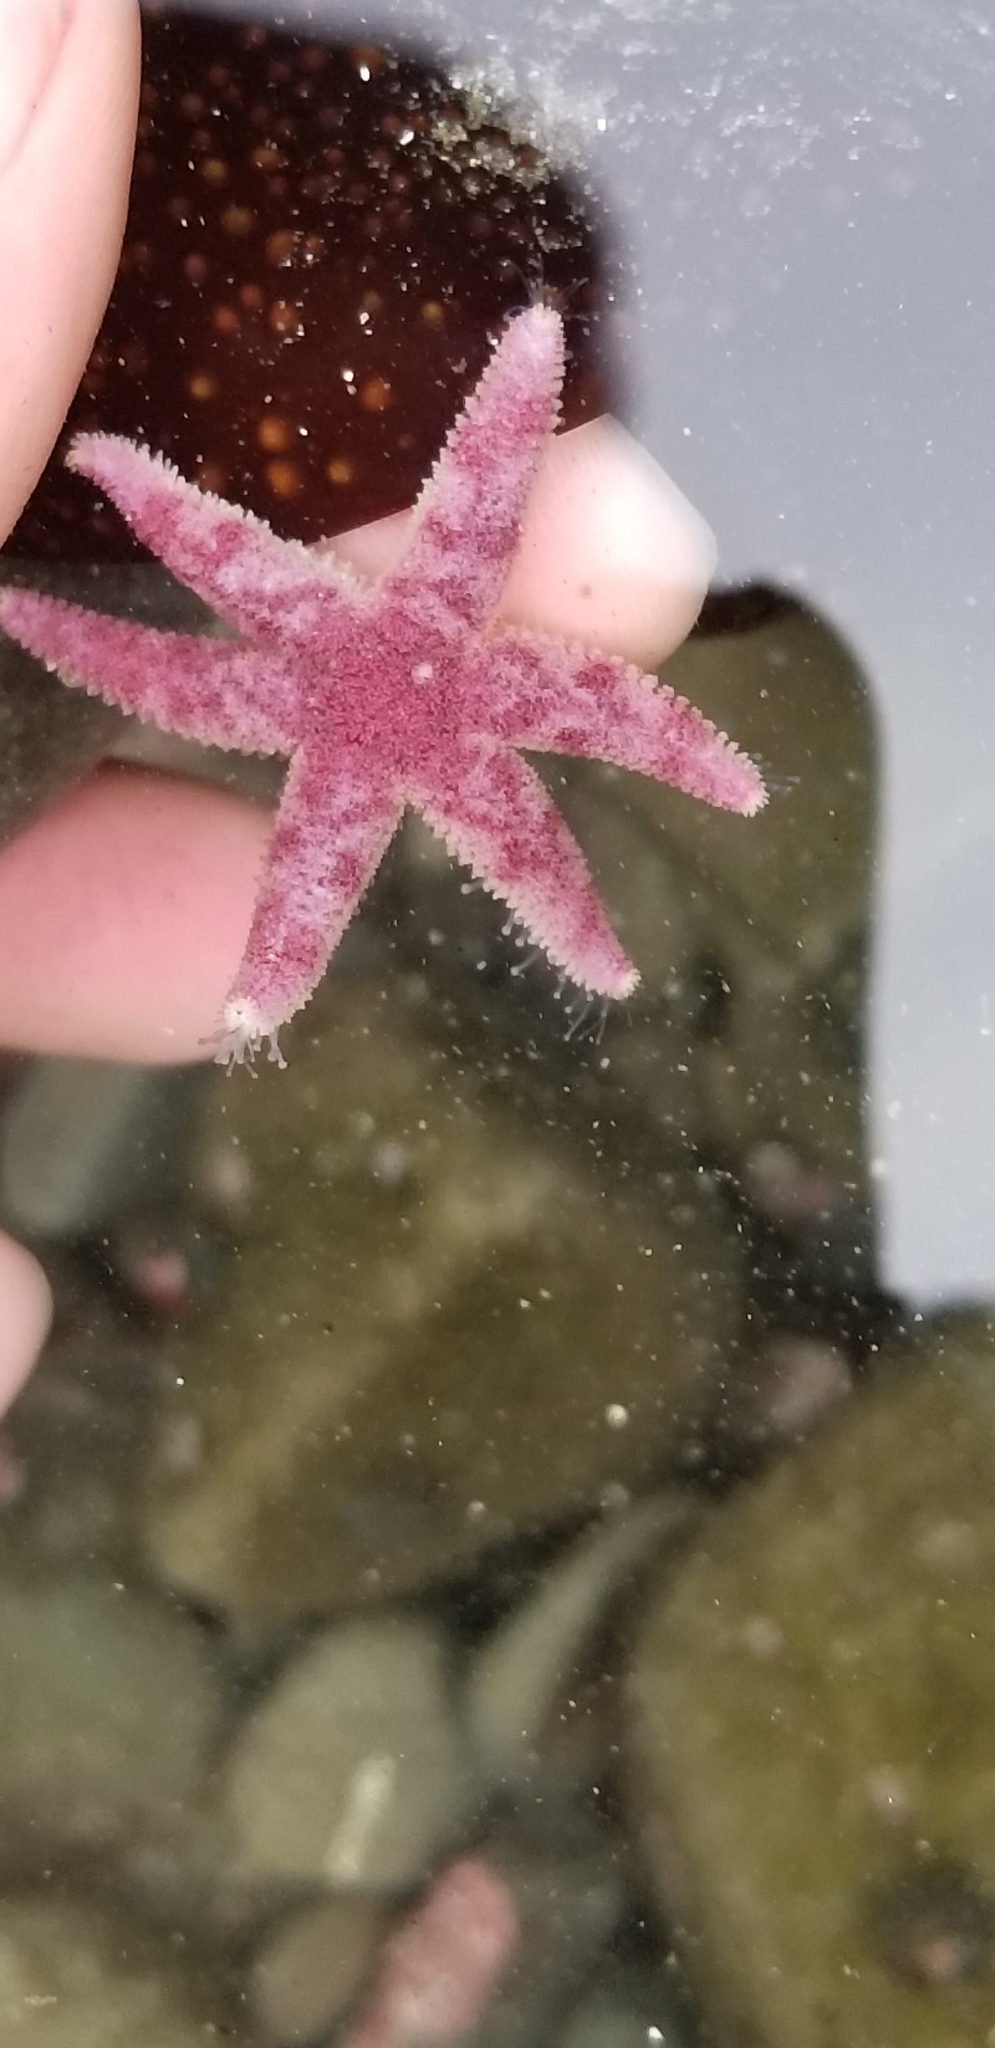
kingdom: Animalia
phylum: Echinodermata
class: Asteroidea
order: Forcipulatida
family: Asteriidae
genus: Leptasterias
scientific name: Leptasterias hexactis
